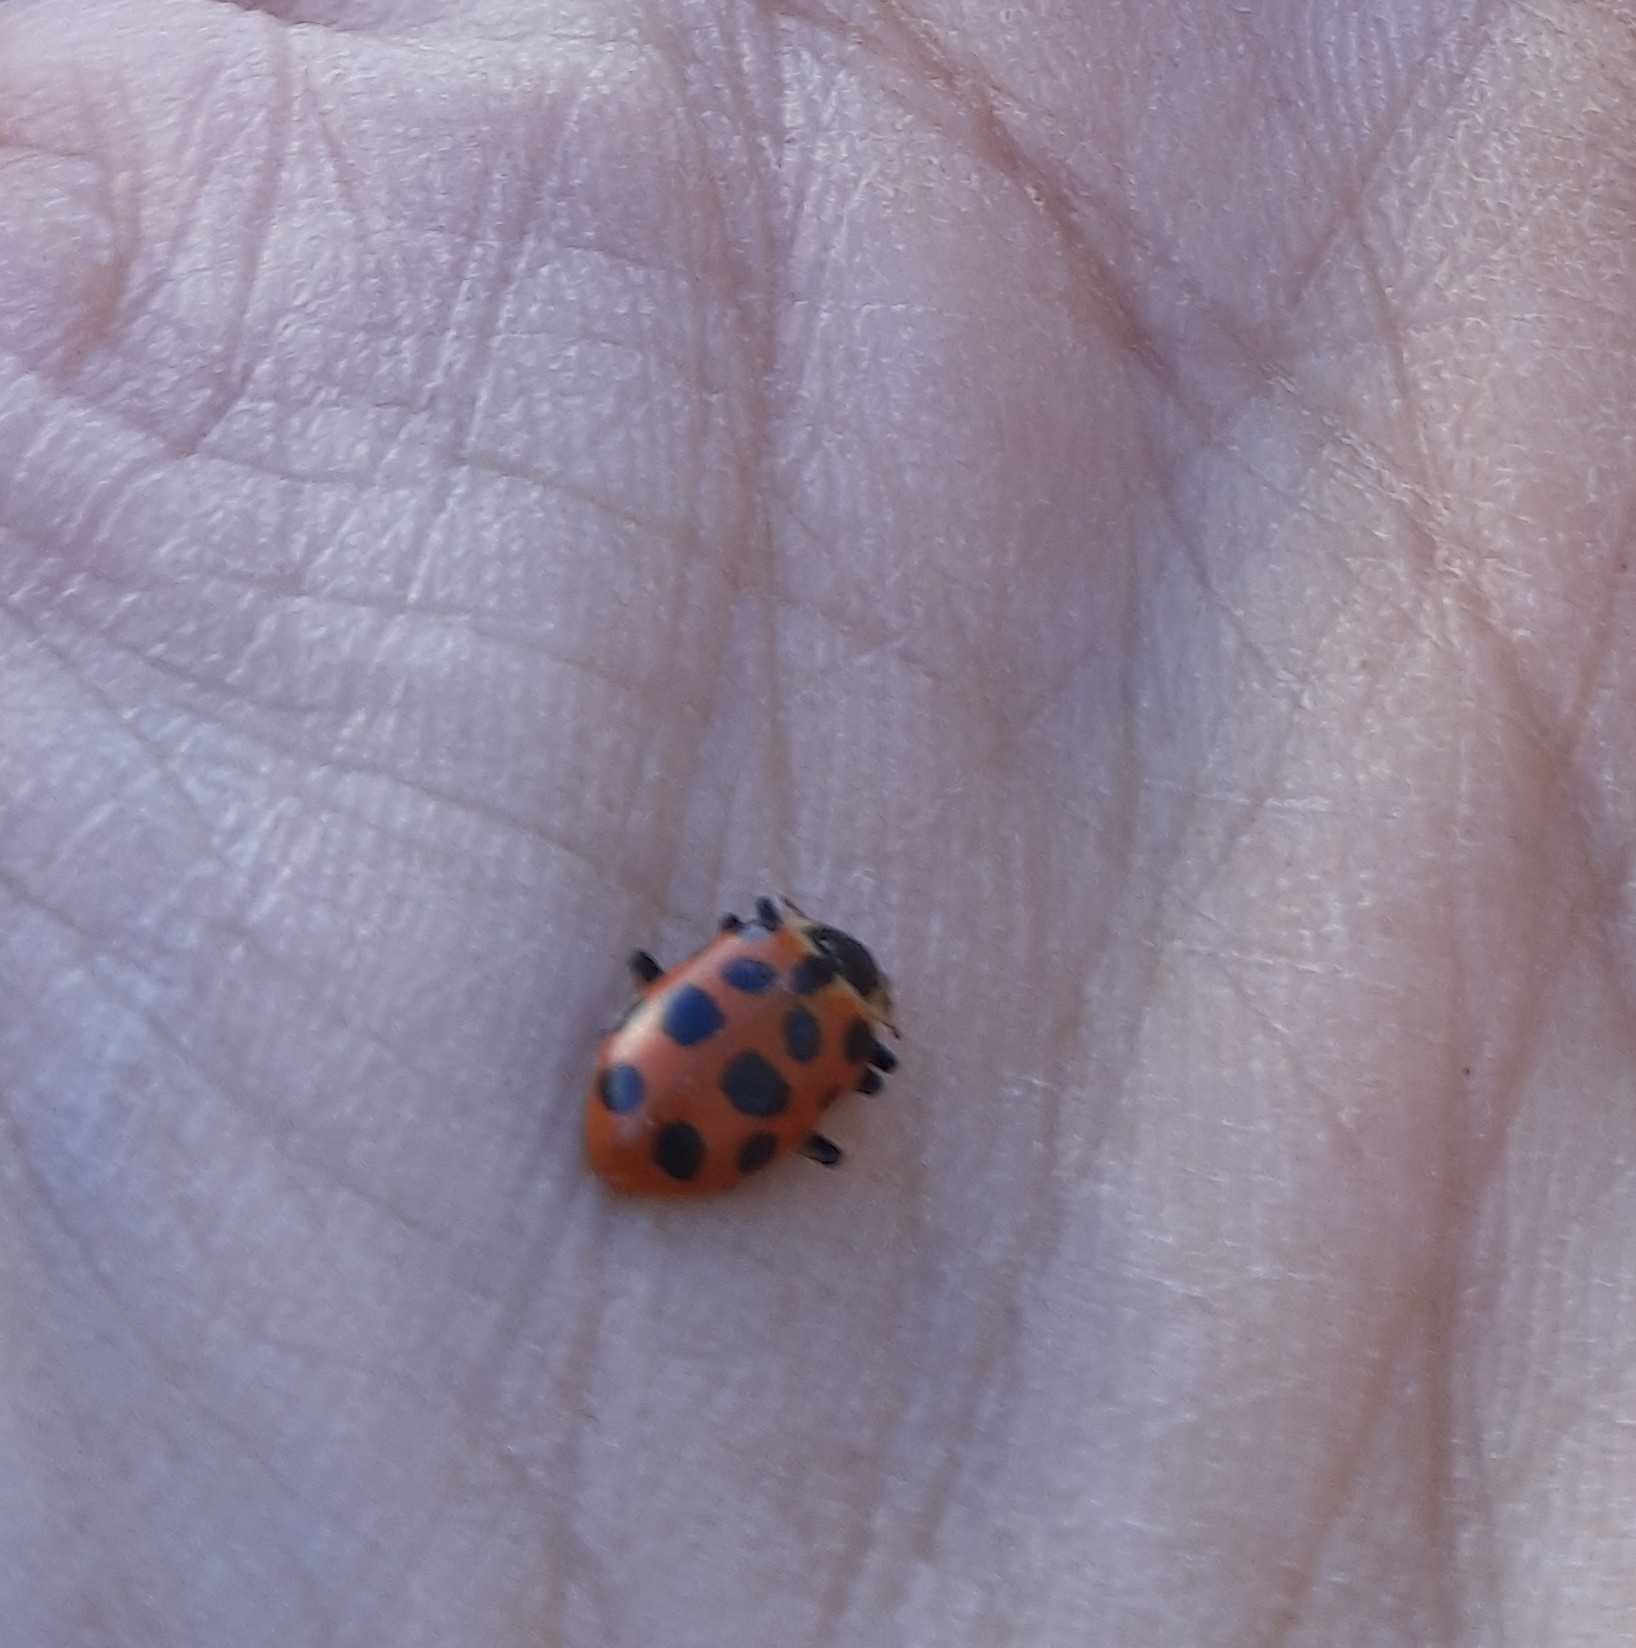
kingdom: Animalia
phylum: Arthropoda
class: Insecta
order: Coleoptera
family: Coccinellidae
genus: Hippodamia
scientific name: Hippodamia tredecimpunctata
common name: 13-spot ladybird
